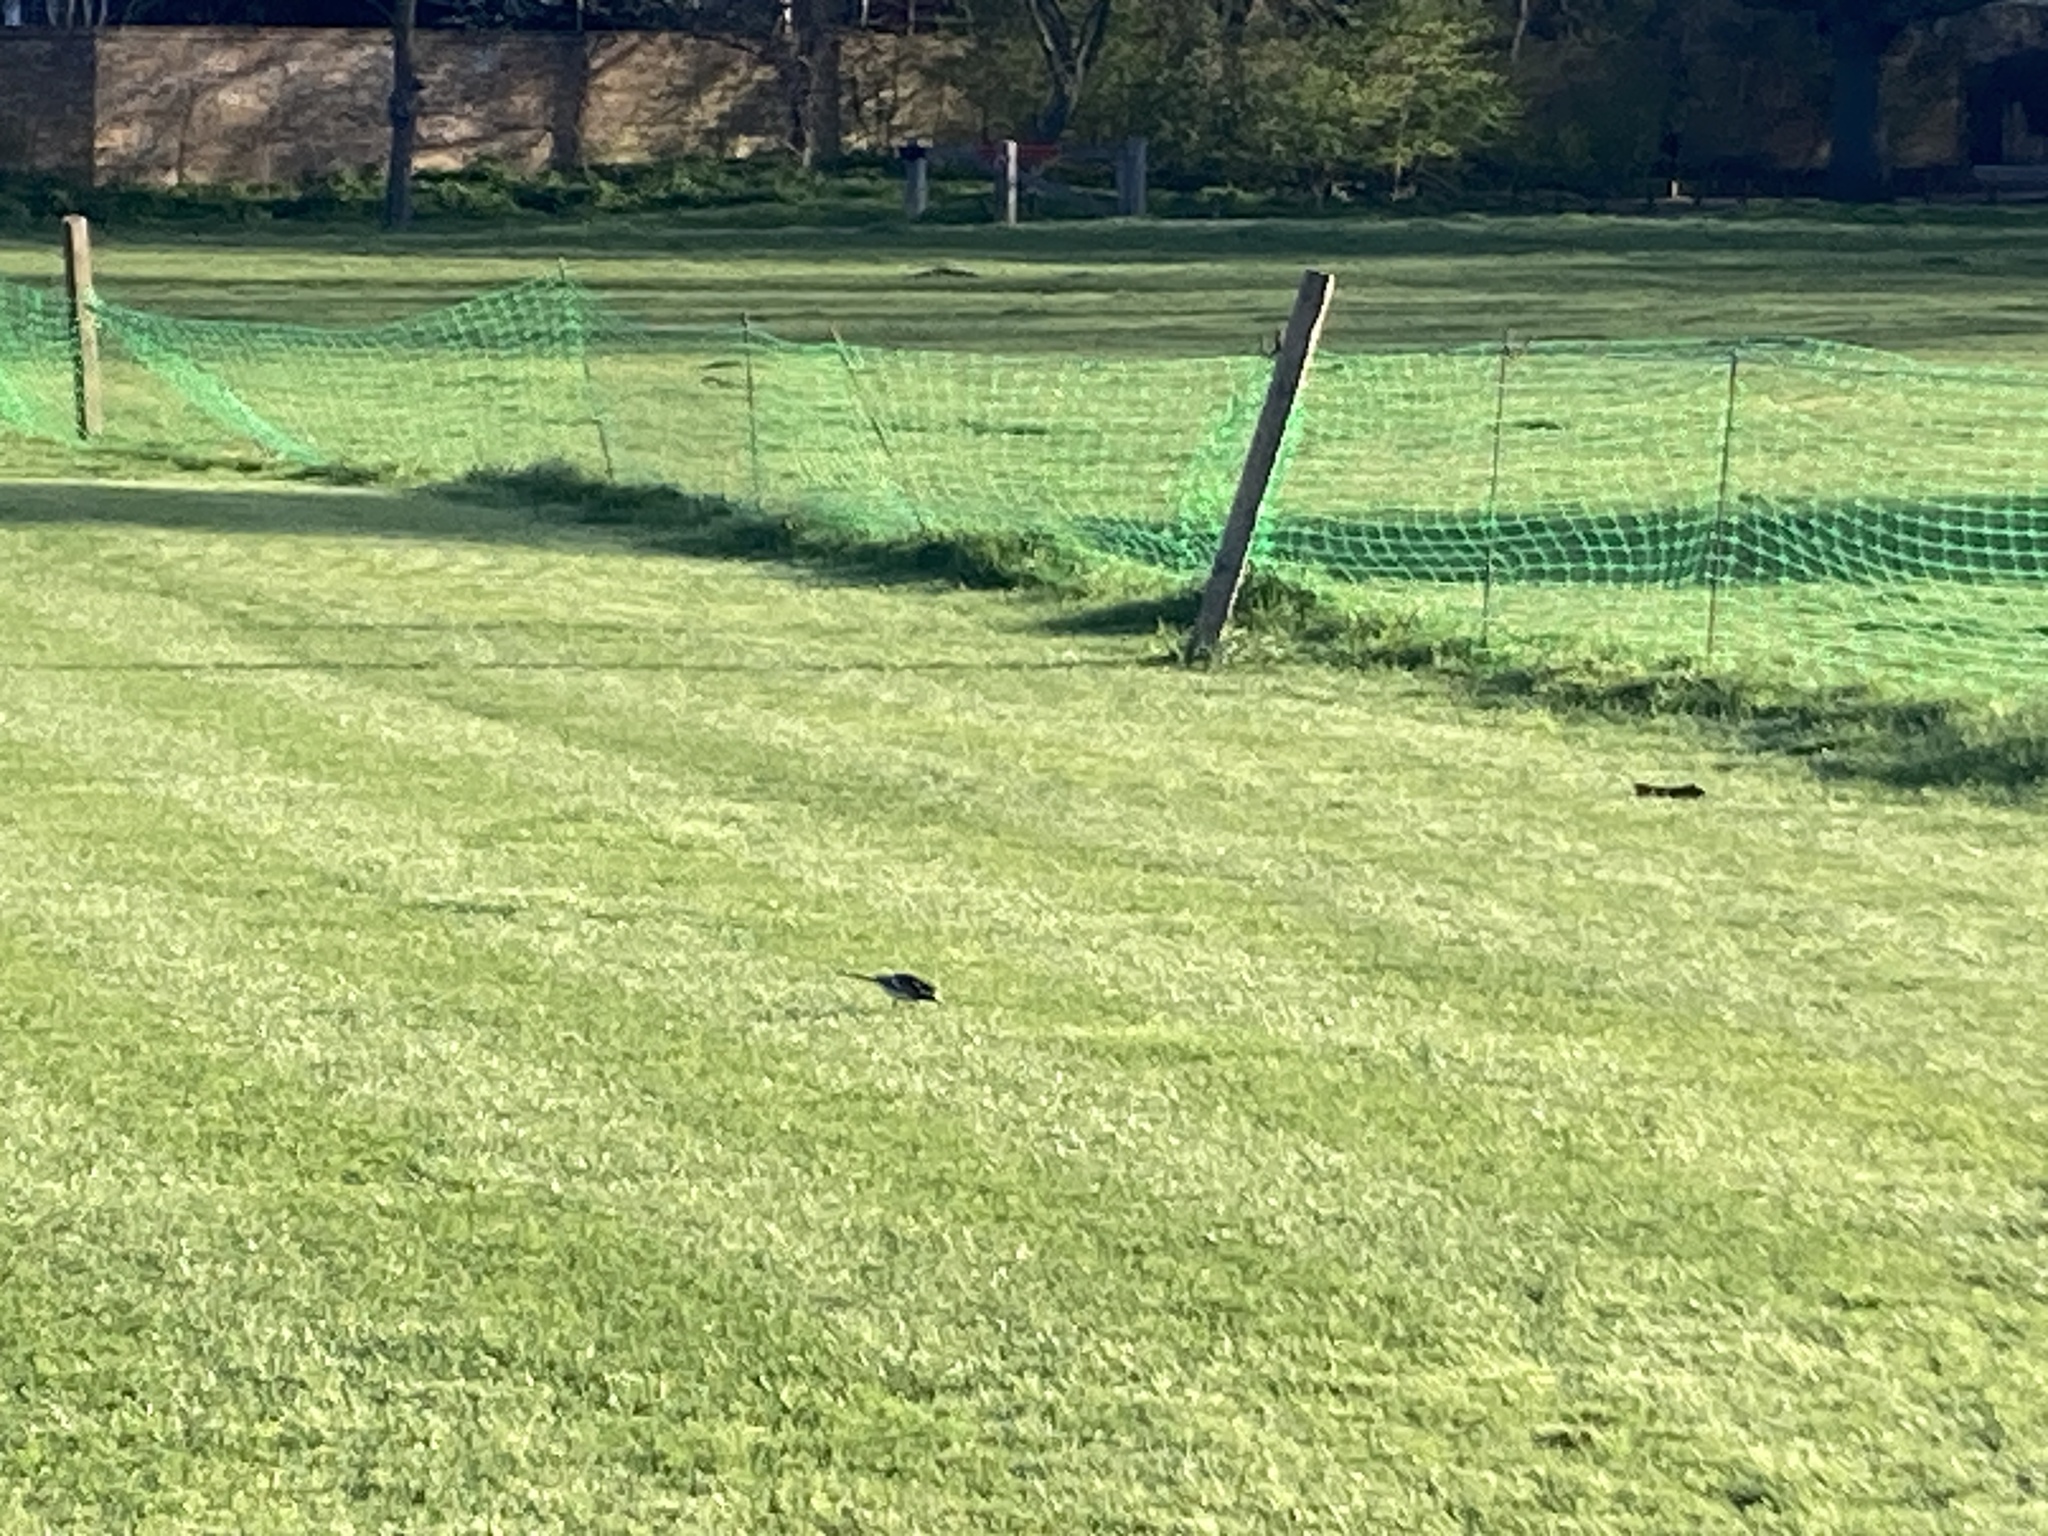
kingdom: Animalia
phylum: Chordata
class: Aves
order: Passeriformes
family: Motacillidae
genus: Motacilla
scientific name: Motacilla alba
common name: White wagtail
